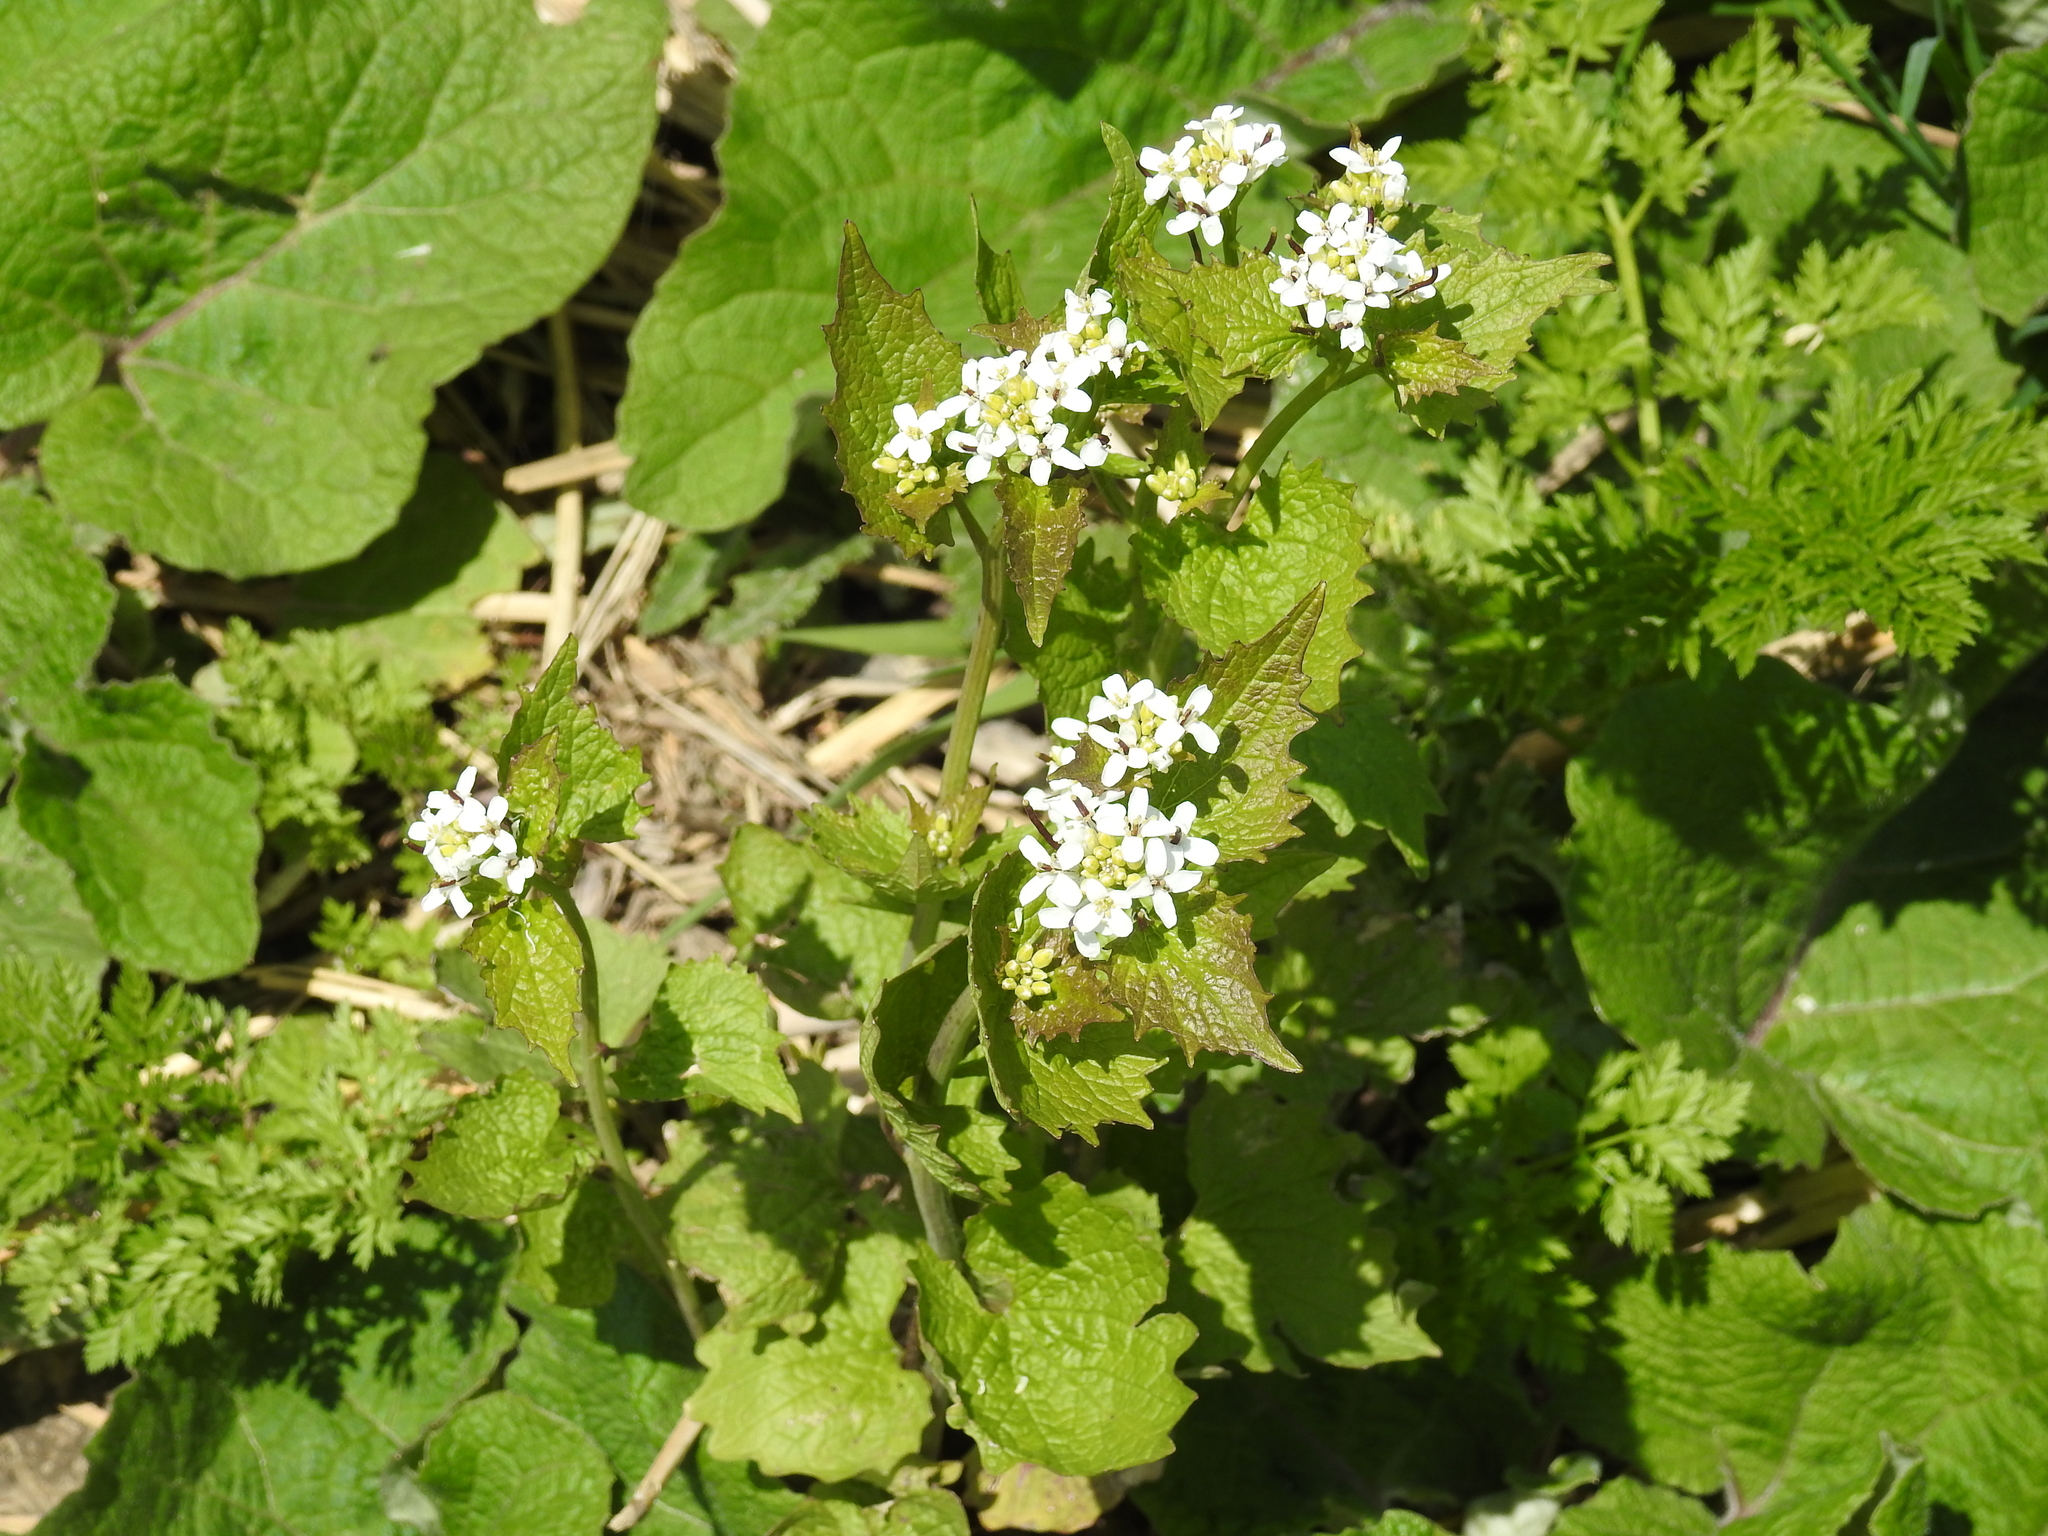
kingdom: Plantae
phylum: Tracheophyta
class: Magnoliopsida
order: Brassicales
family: Brassicaceae
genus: Alliaria
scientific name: Alliaria petiolata
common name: Garlic mustard
